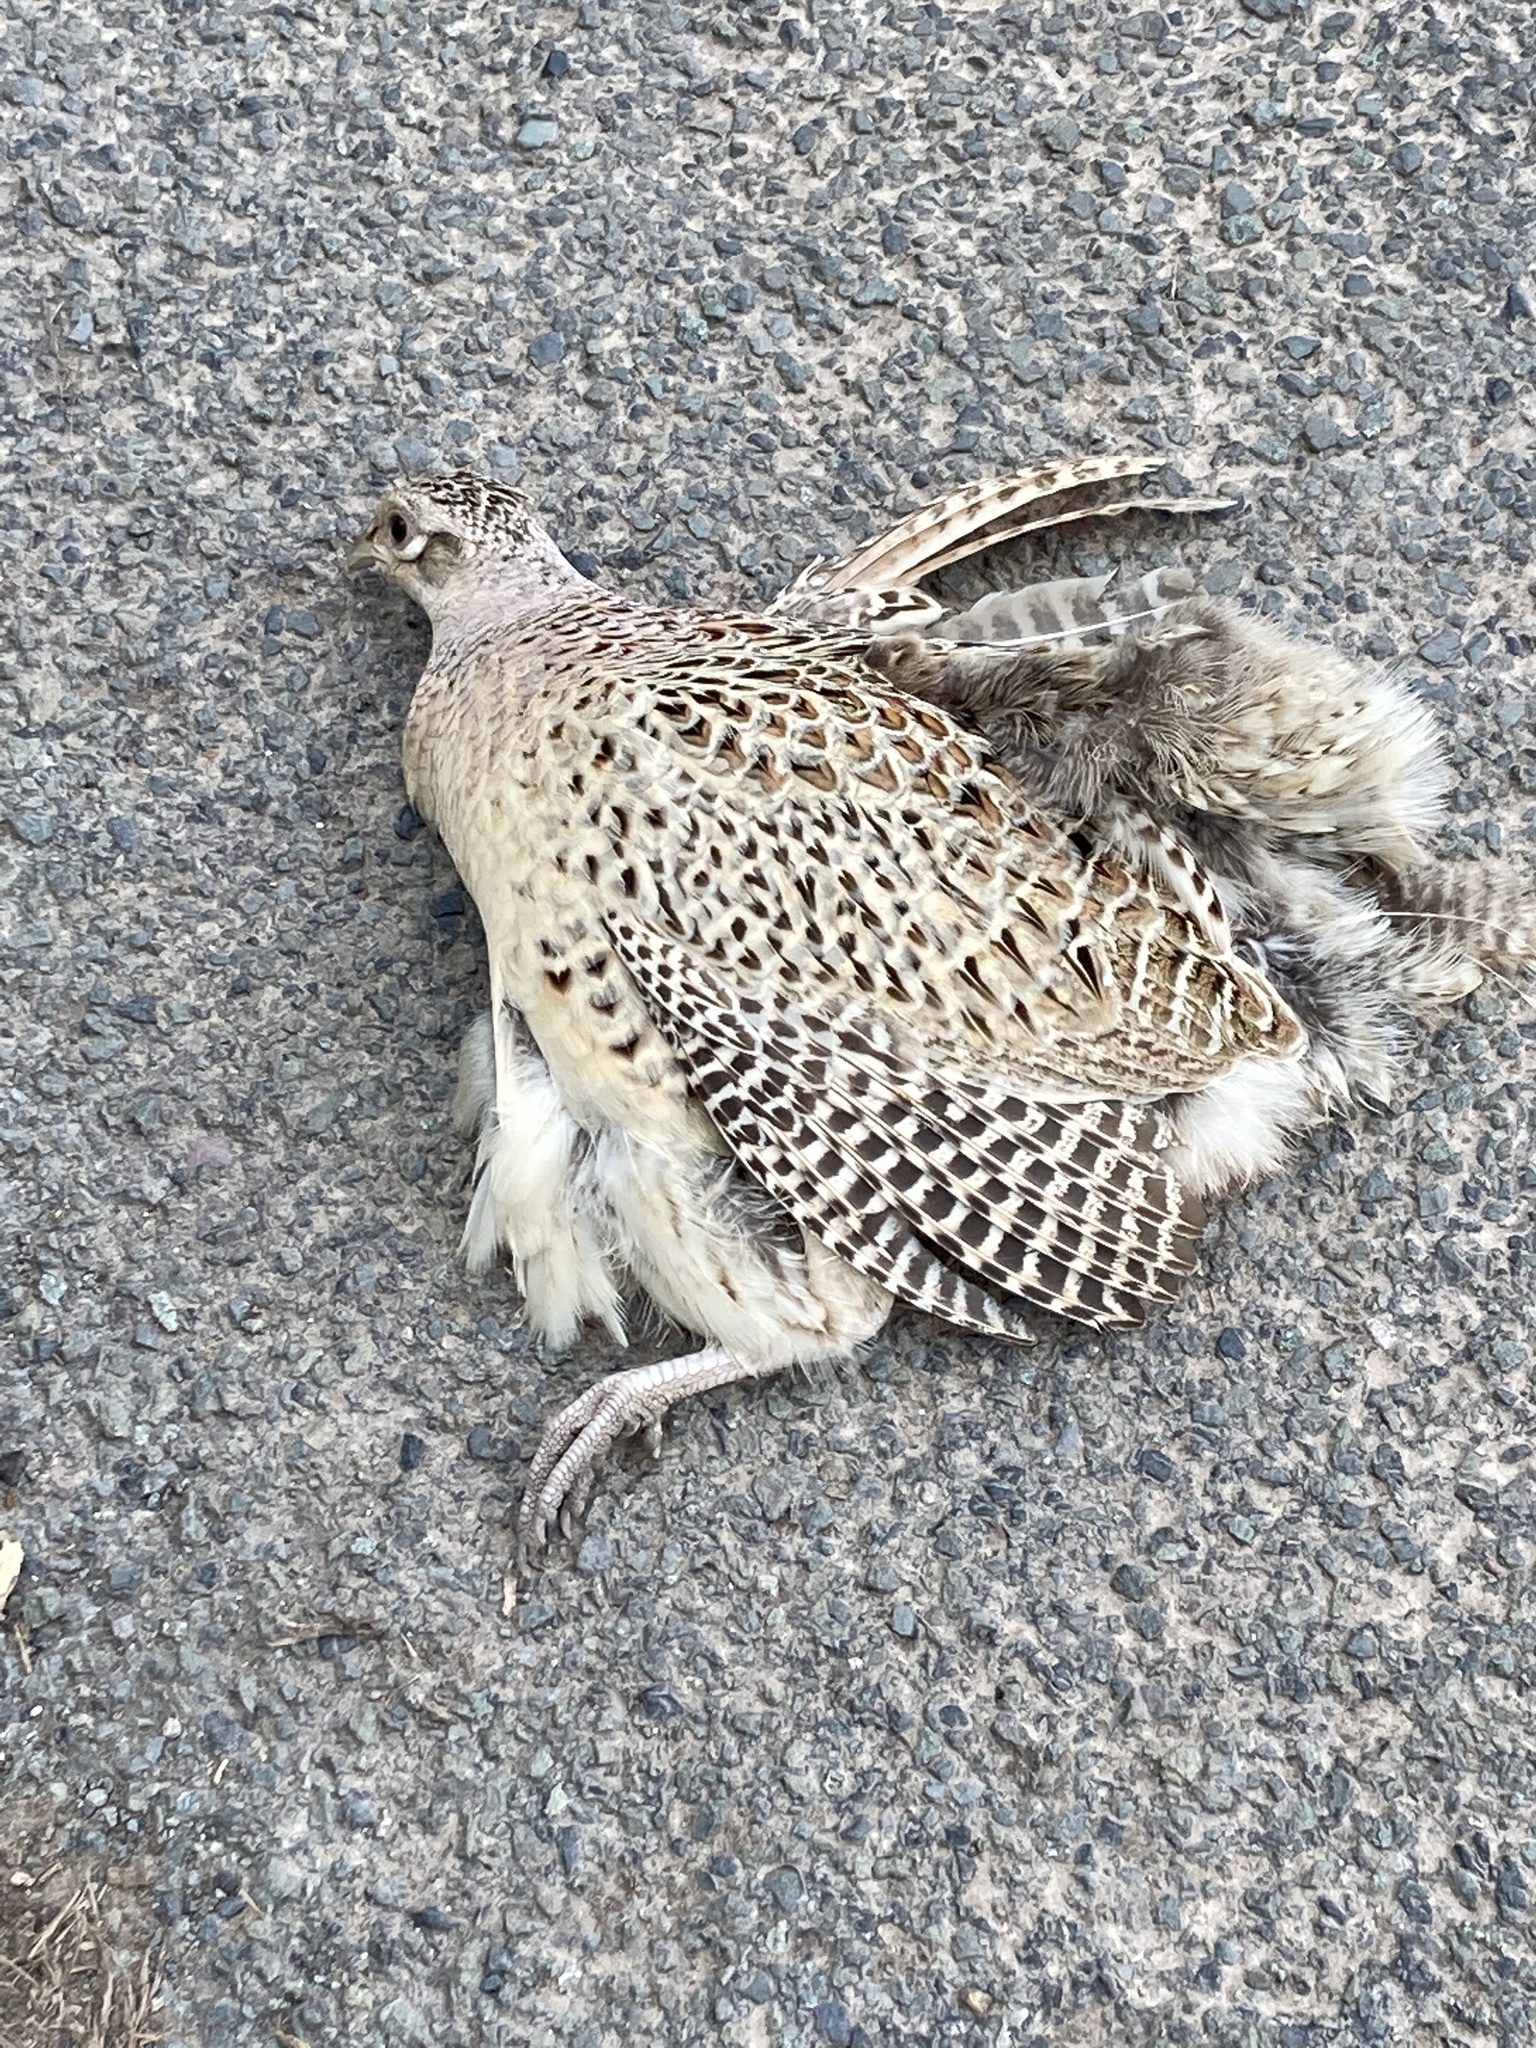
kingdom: Animalia
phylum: Chordata
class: Aves
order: Galliformes
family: Phasianidae
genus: Phasianus
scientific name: Phasianus colchicus
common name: Common pheasant
